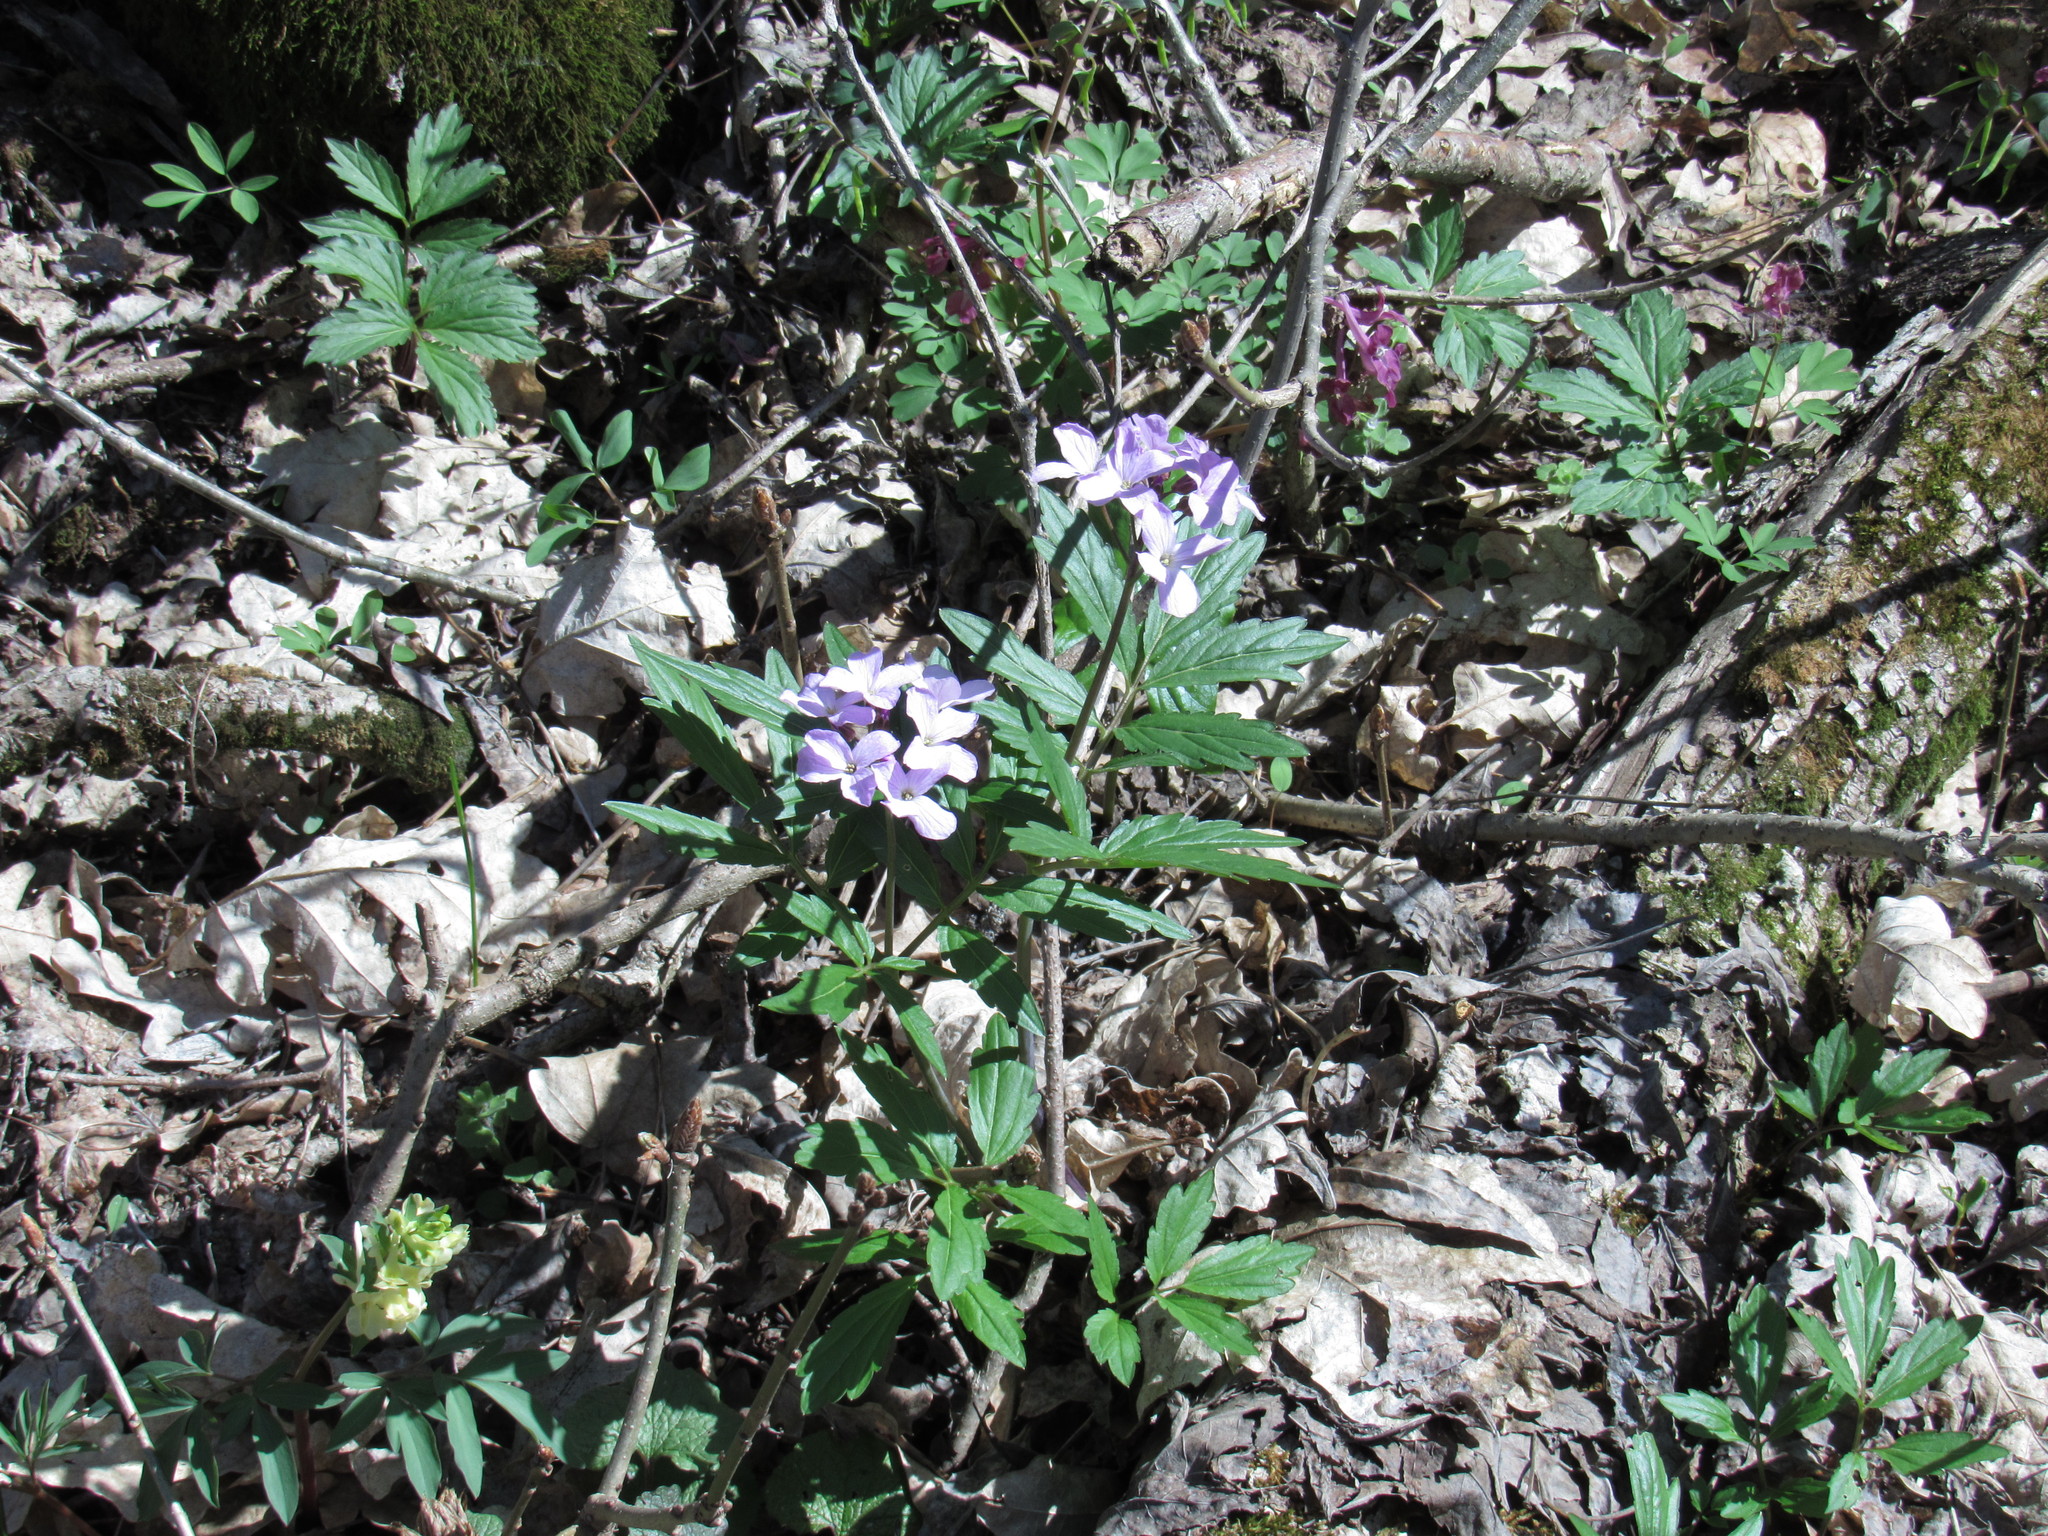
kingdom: Plantae
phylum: Tracheophyta
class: Magnoliopsida
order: Brassicales
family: Brassicaceae
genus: Cardamine
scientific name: Cardamine quinquefolia
